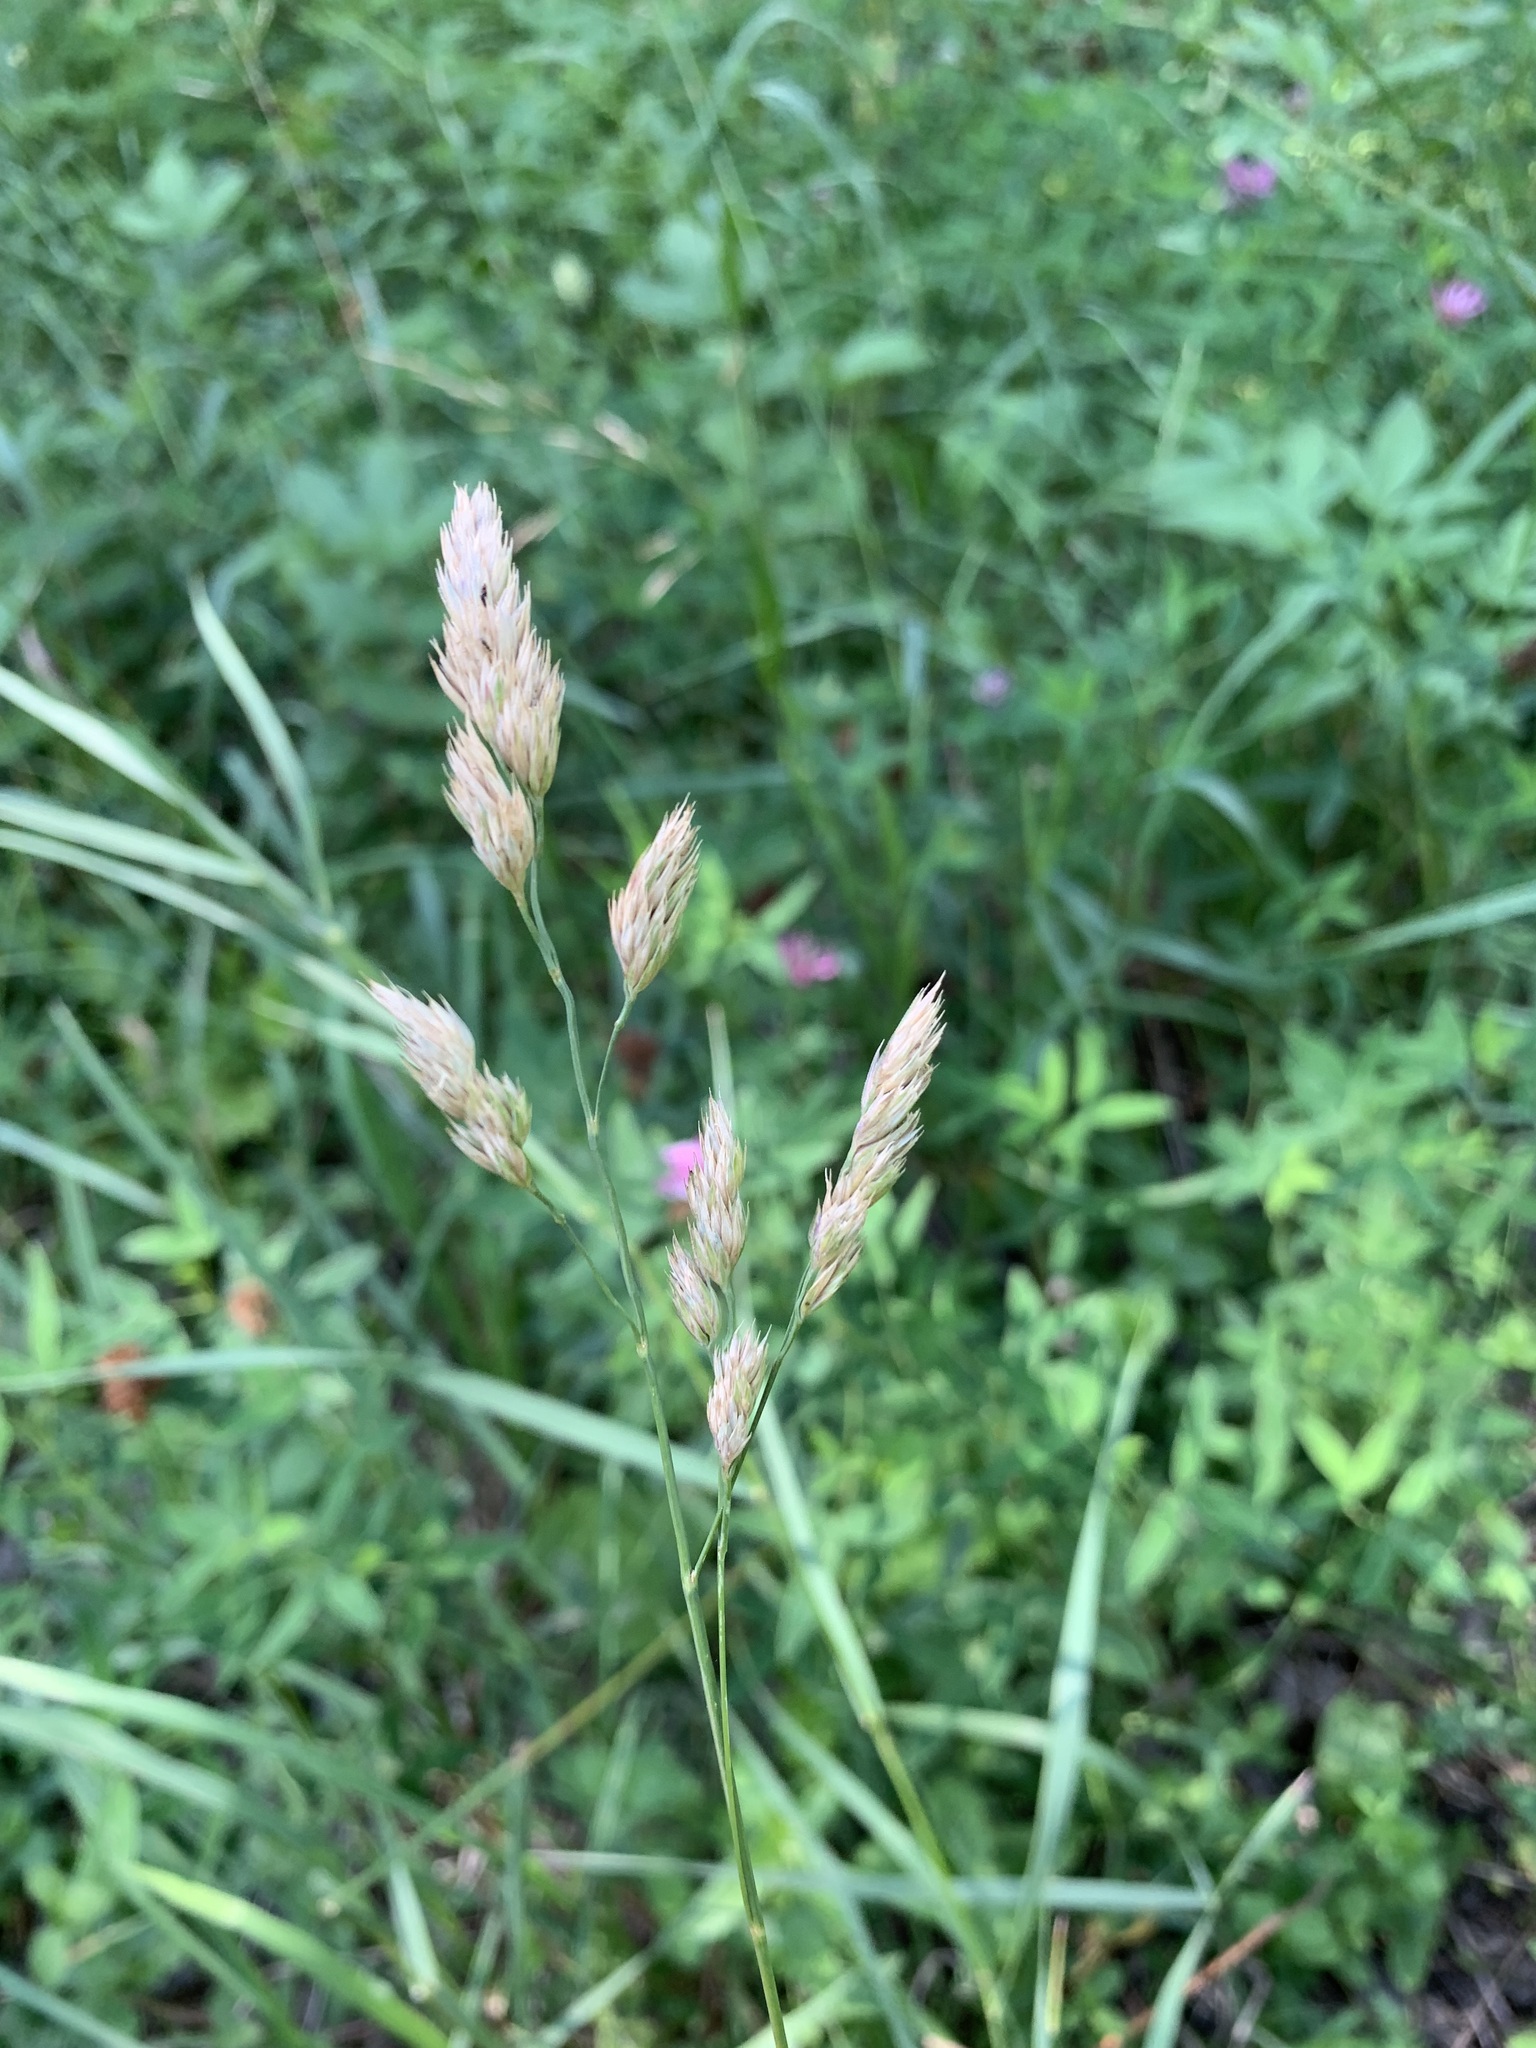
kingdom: Plantae
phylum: Tracheophyta
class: Liliopsida
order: Poales
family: Poaceae
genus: Dactylis
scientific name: Dactylis glomerata
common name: Orchardgrass
